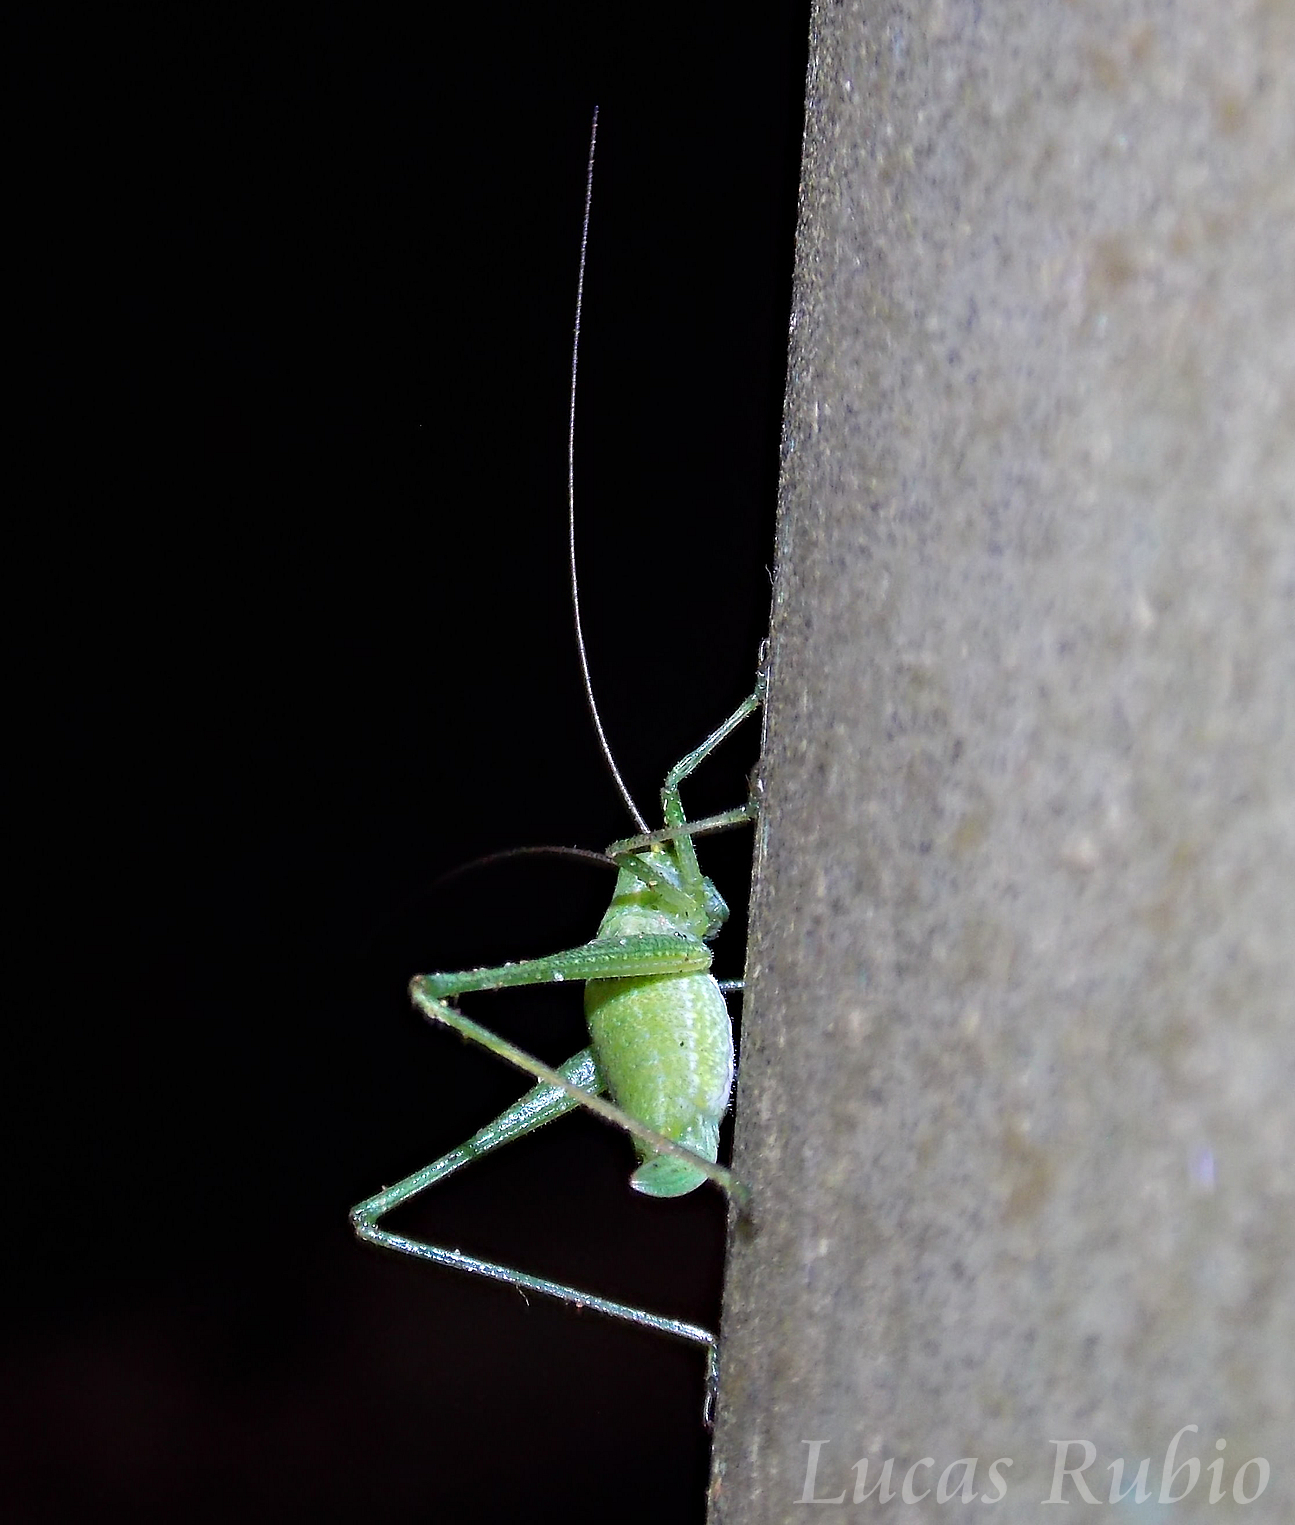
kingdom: Animalia
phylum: Arthropoda
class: Insecta
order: Orthoptera
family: Tettigoniidae
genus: Anisophya
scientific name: Anisophya punctinervis
